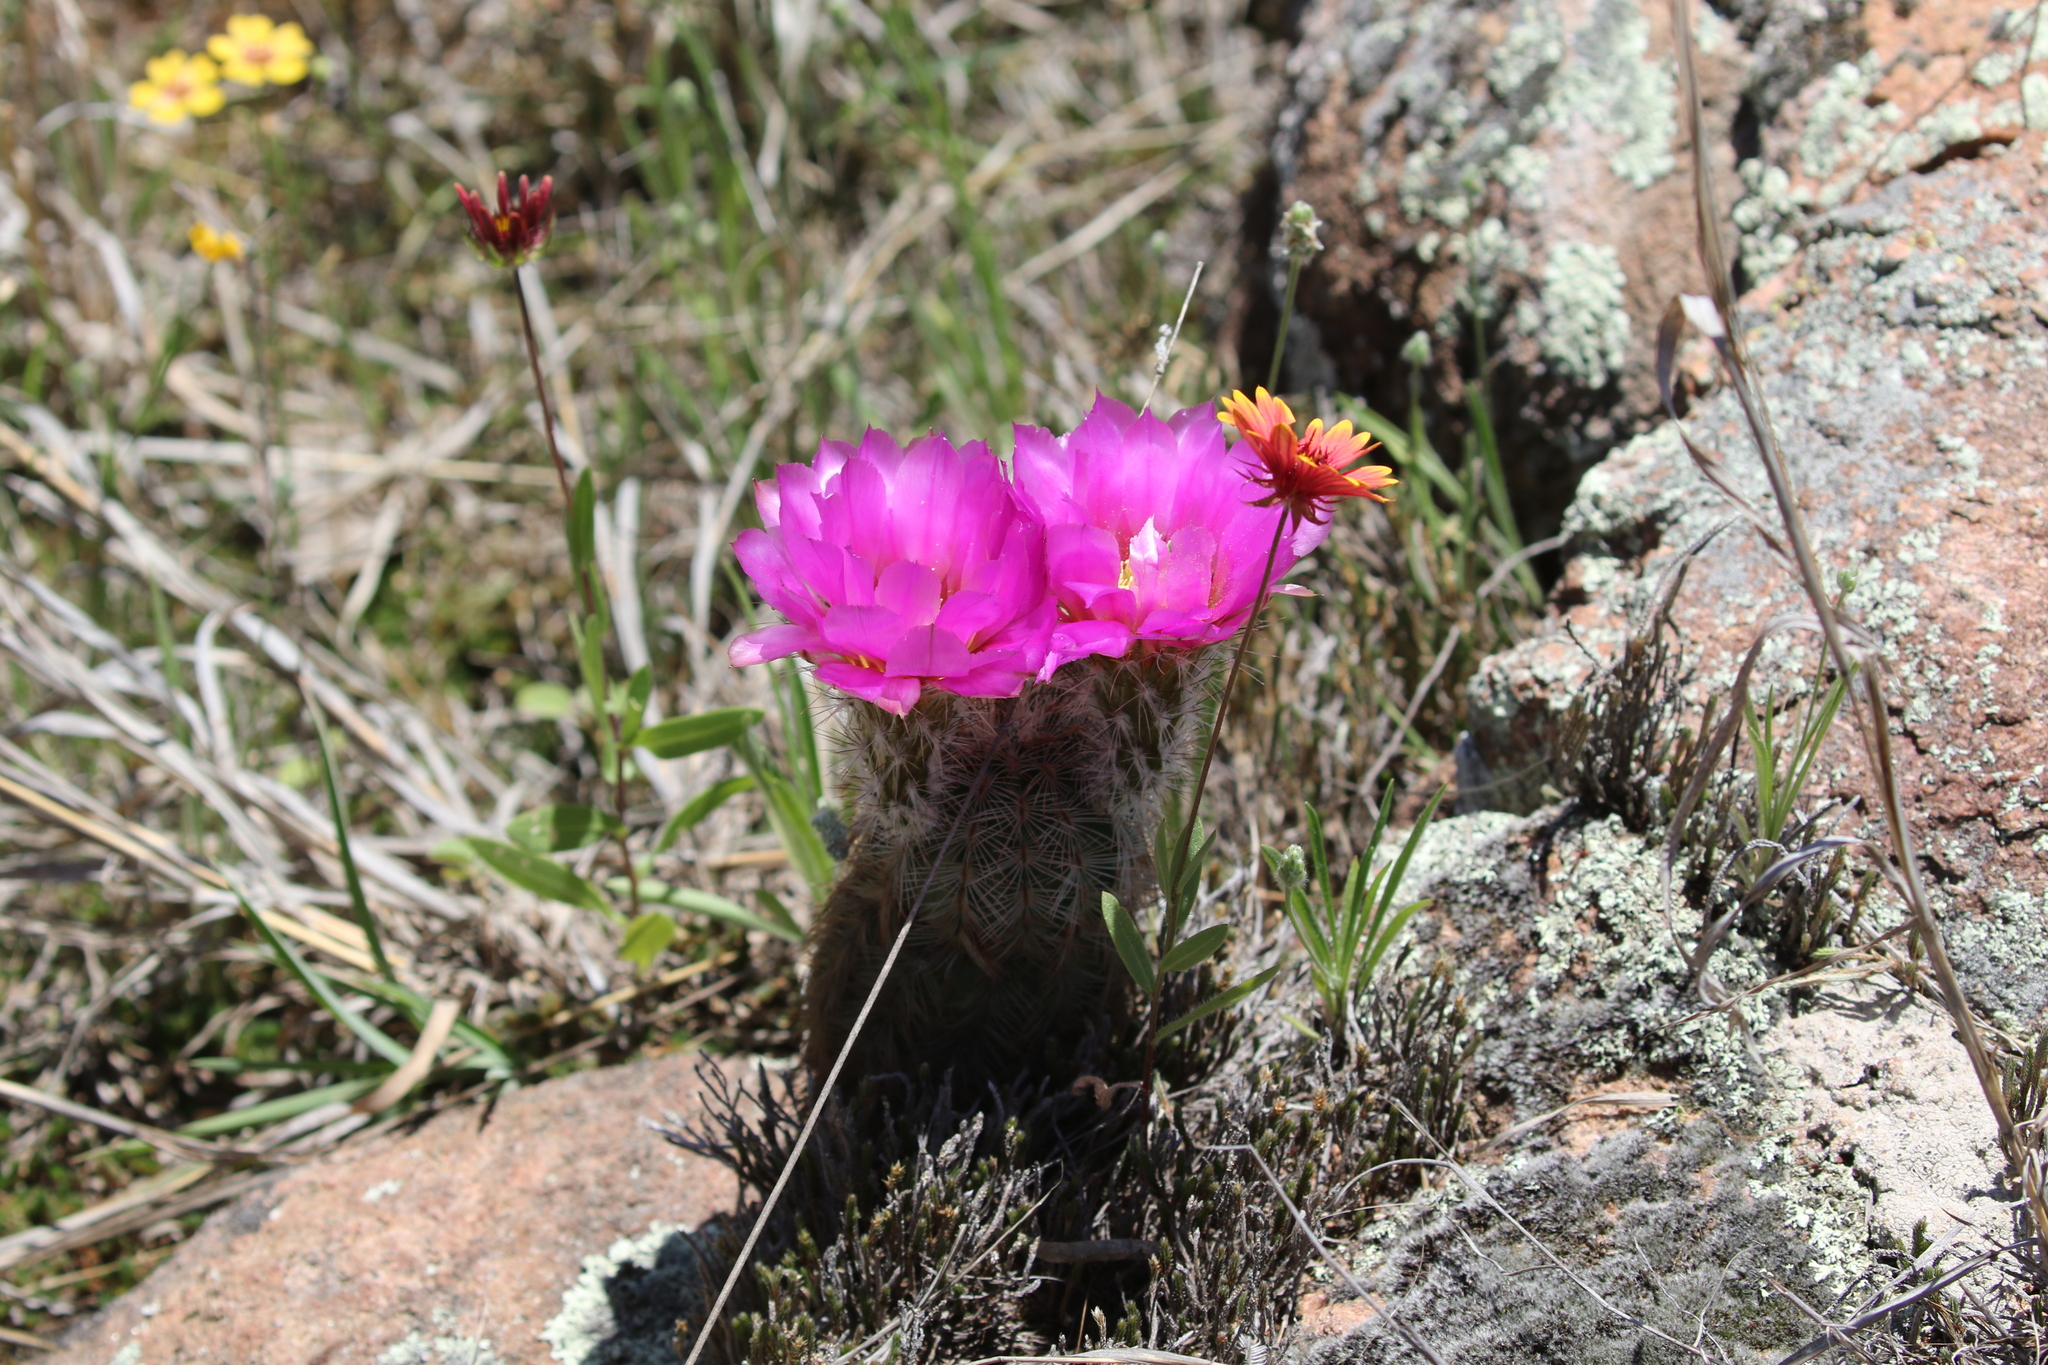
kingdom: Plantae
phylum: Tracheophyta
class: Magnoliopsida
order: Caryophyllales
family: Cactaceae
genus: Echinocereus
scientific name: Echinocereus reichenbachii
